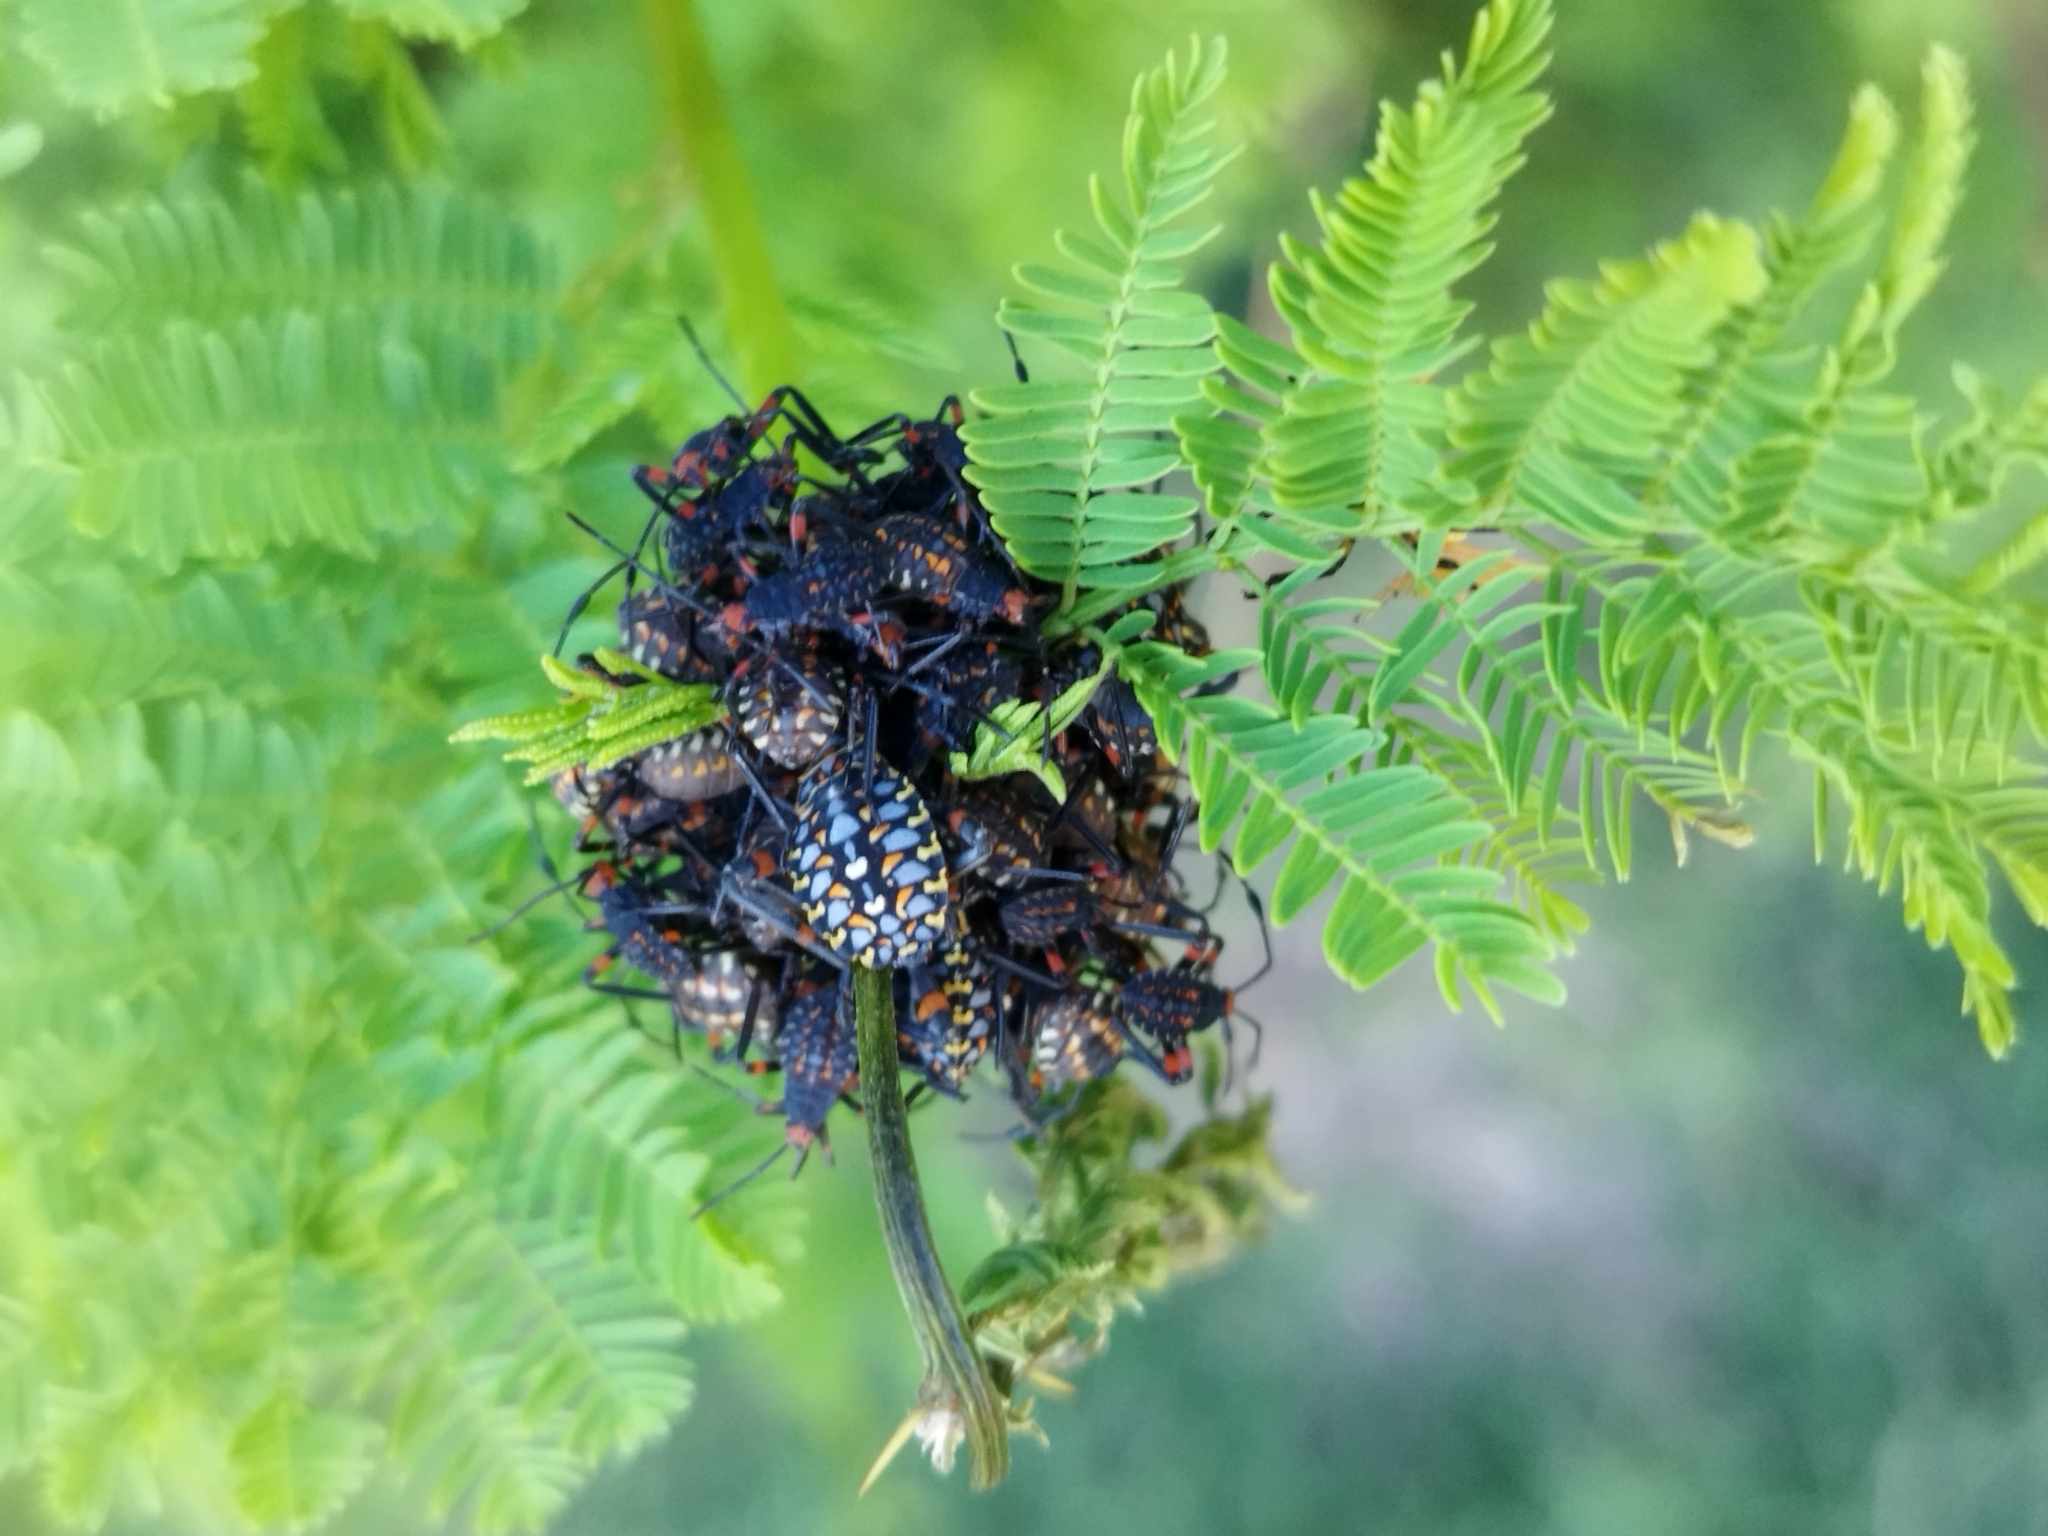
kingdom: Animalia
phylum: Arthropoda
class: Insecta
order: Hemiptera
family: Coreidae
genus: Pachylis
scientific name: Pachylis argentinus
